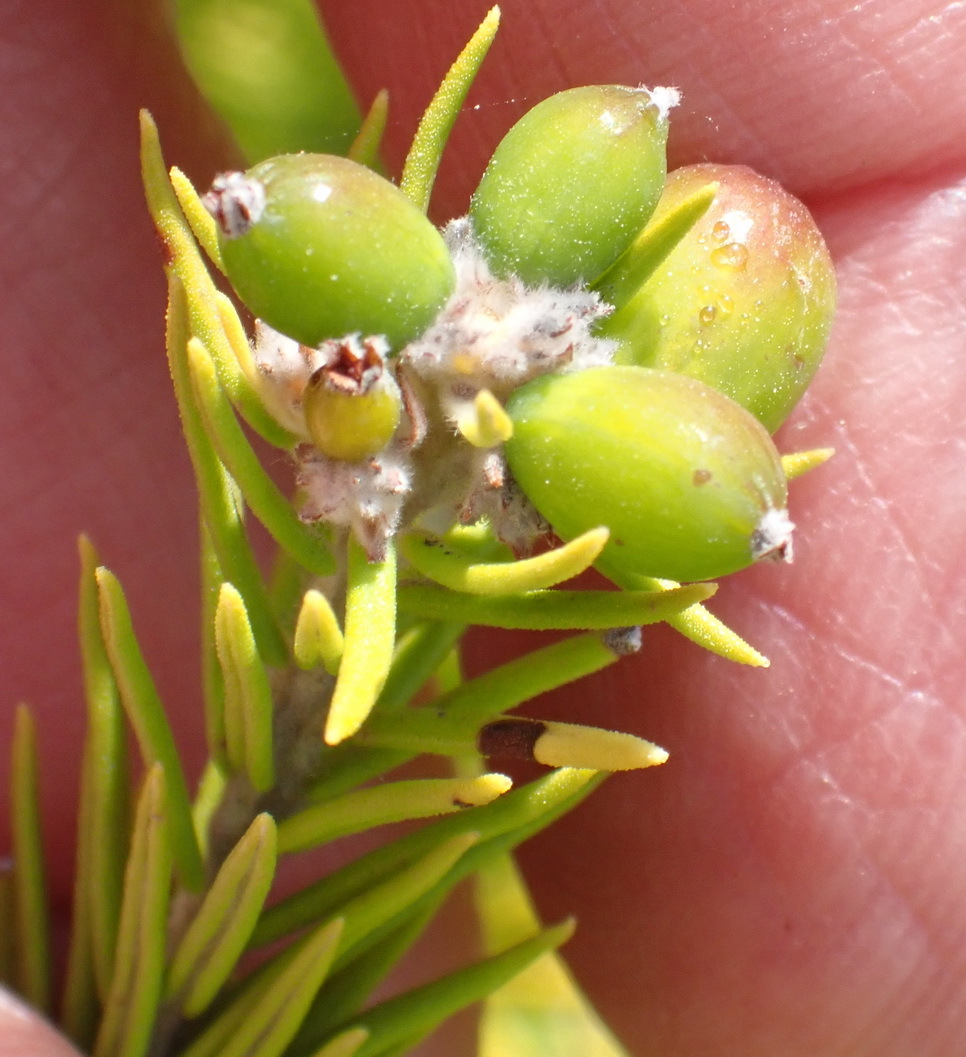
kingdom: Plantae
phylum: Tracheophyta
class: Magnoliopsida
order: Rosales
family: Rhamnaceae
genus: Phylica
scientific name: Phylica wittebergensis
